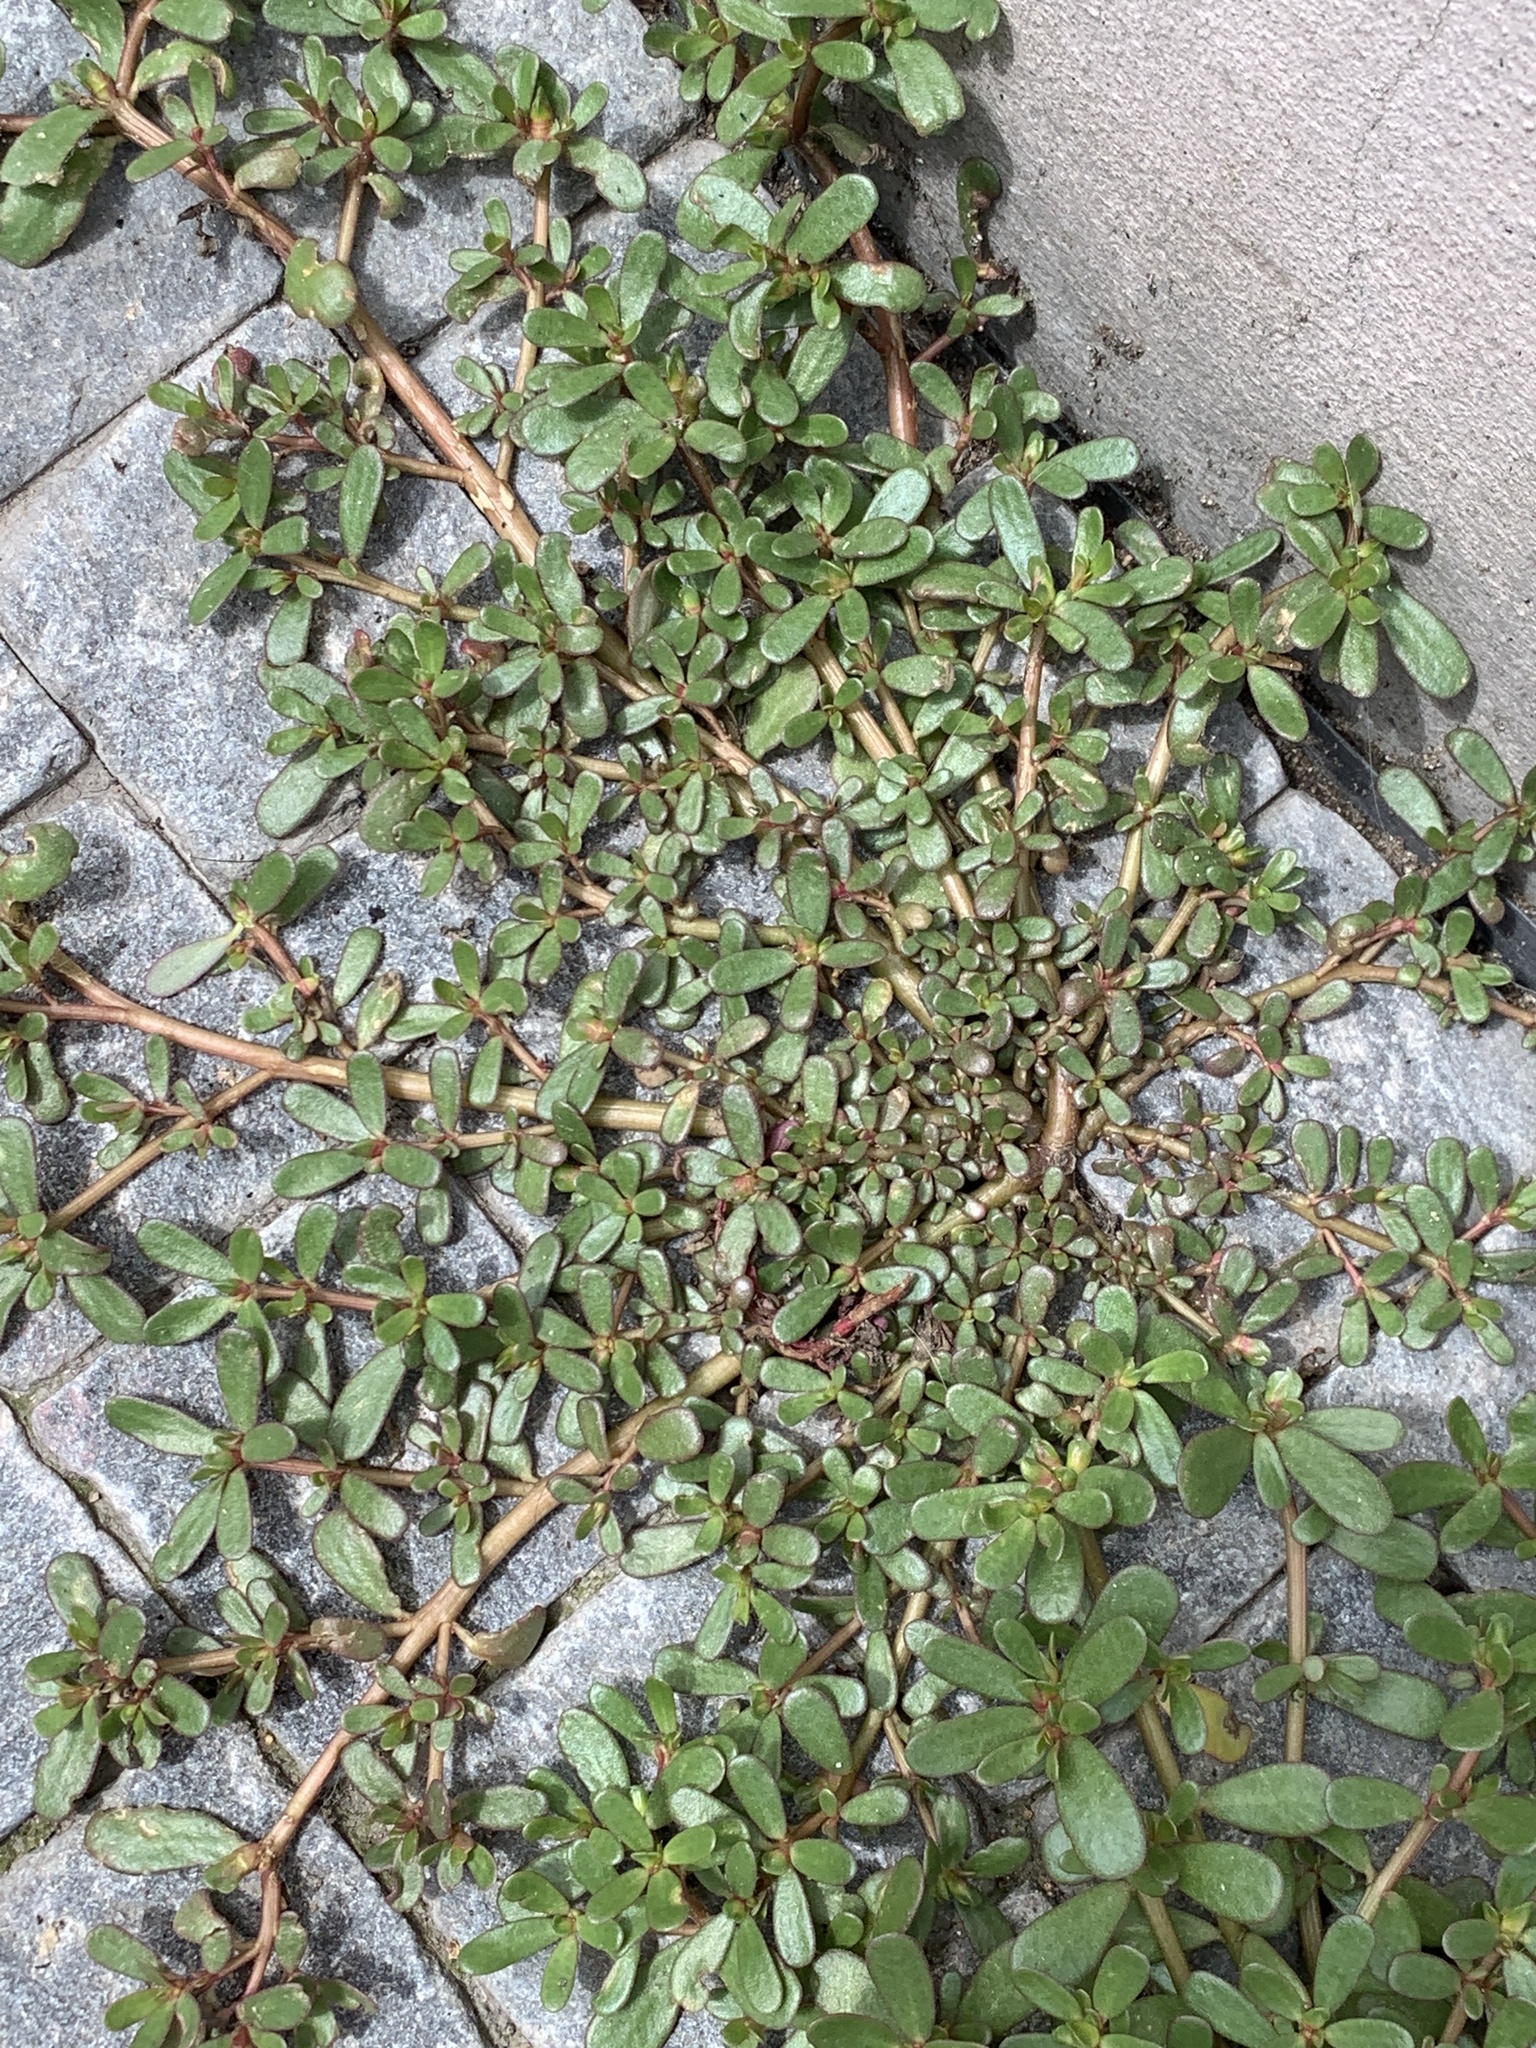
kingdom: Plantae
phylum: Tracheophyta
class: Magnoliopsida
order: Caryophyllales
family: Portulacaceae
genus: Portulaca
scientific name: Portulaca oleracea
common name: Common purslane
